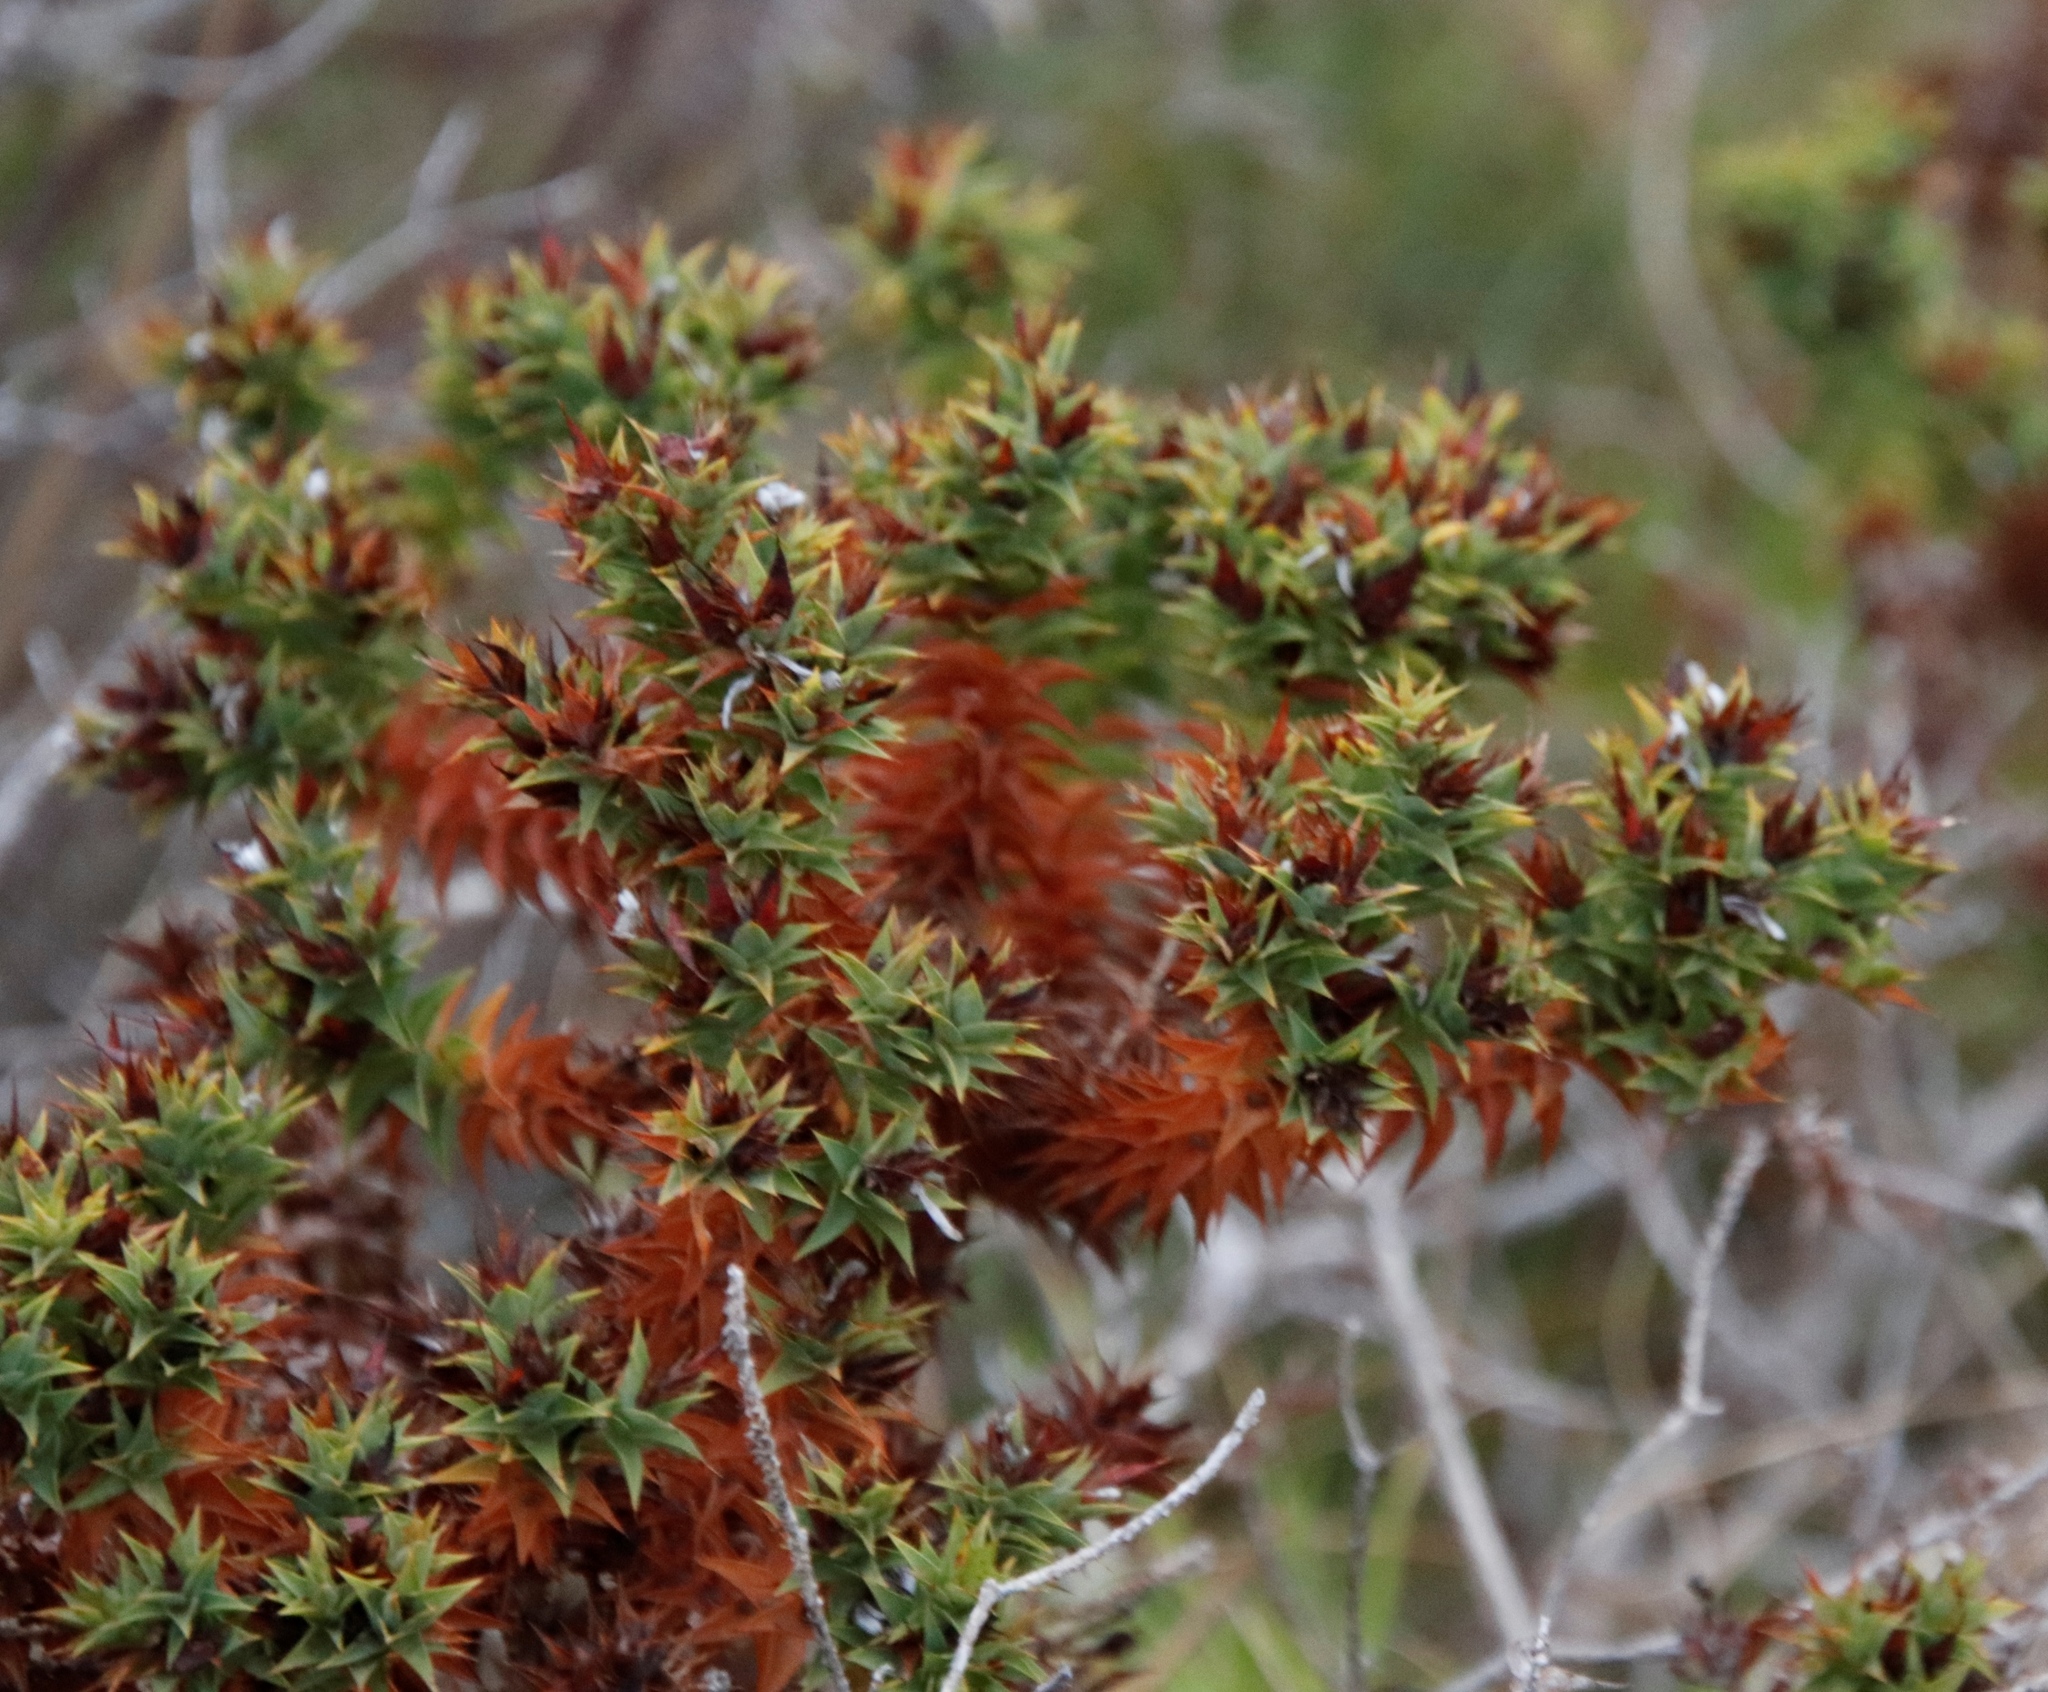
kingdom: Plantae
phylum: Tracheophyta
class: Magnoliopsida
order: Fabales
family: Fabaceae
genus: Aspalathus
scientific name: Aspalathus cordata
